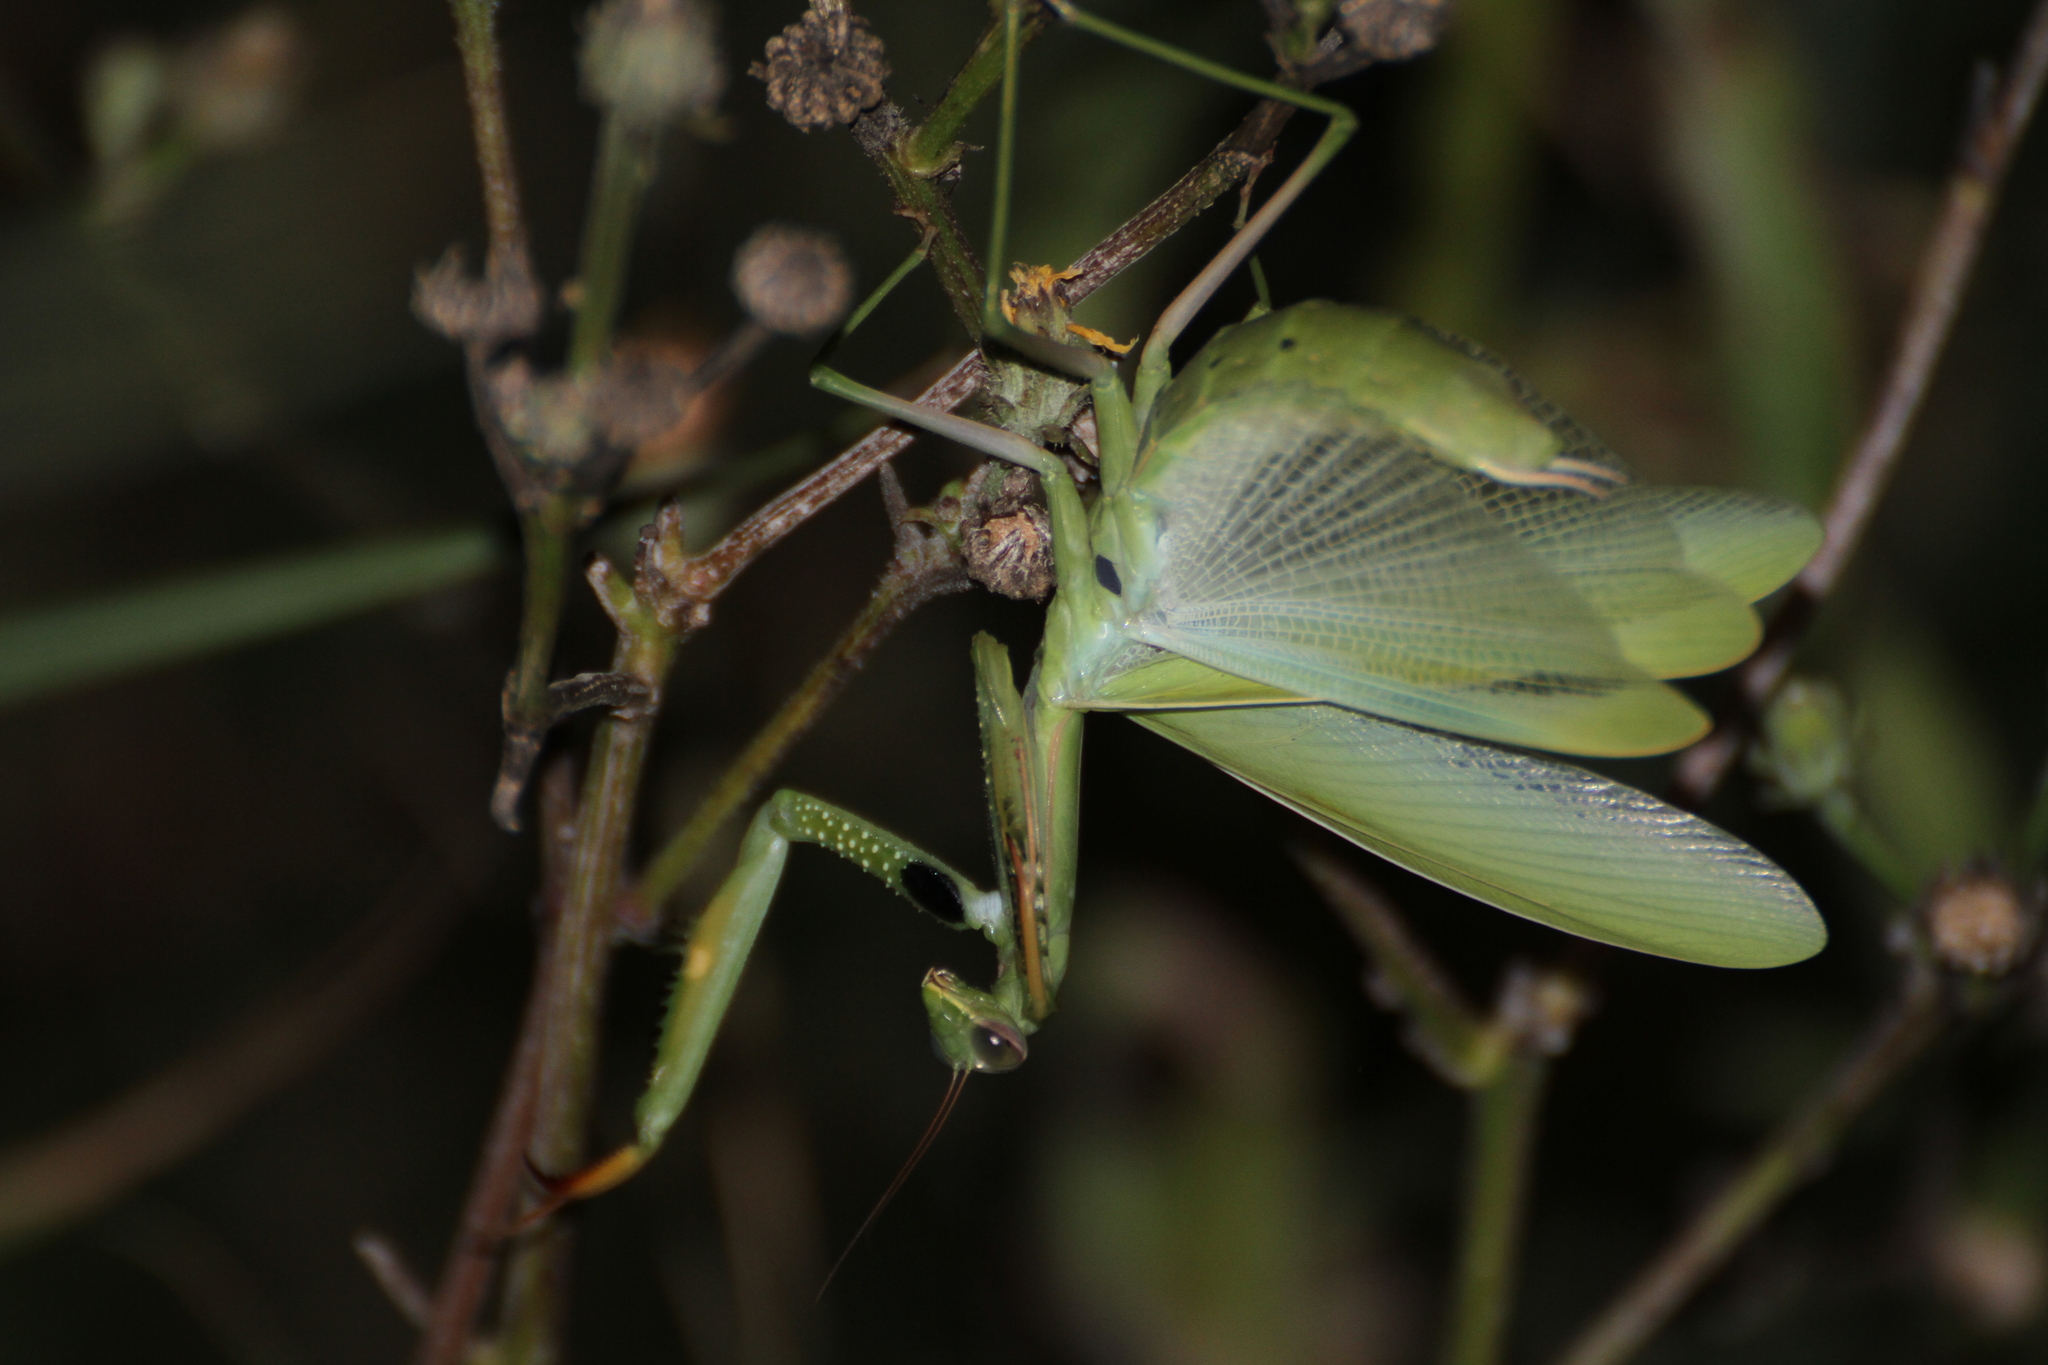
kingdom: Animalia
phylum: Arthropoda
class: Insecta
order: Mantodea
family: Mantidae
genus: Mantis
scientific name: Mantis religiosa
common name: Praying mantis
